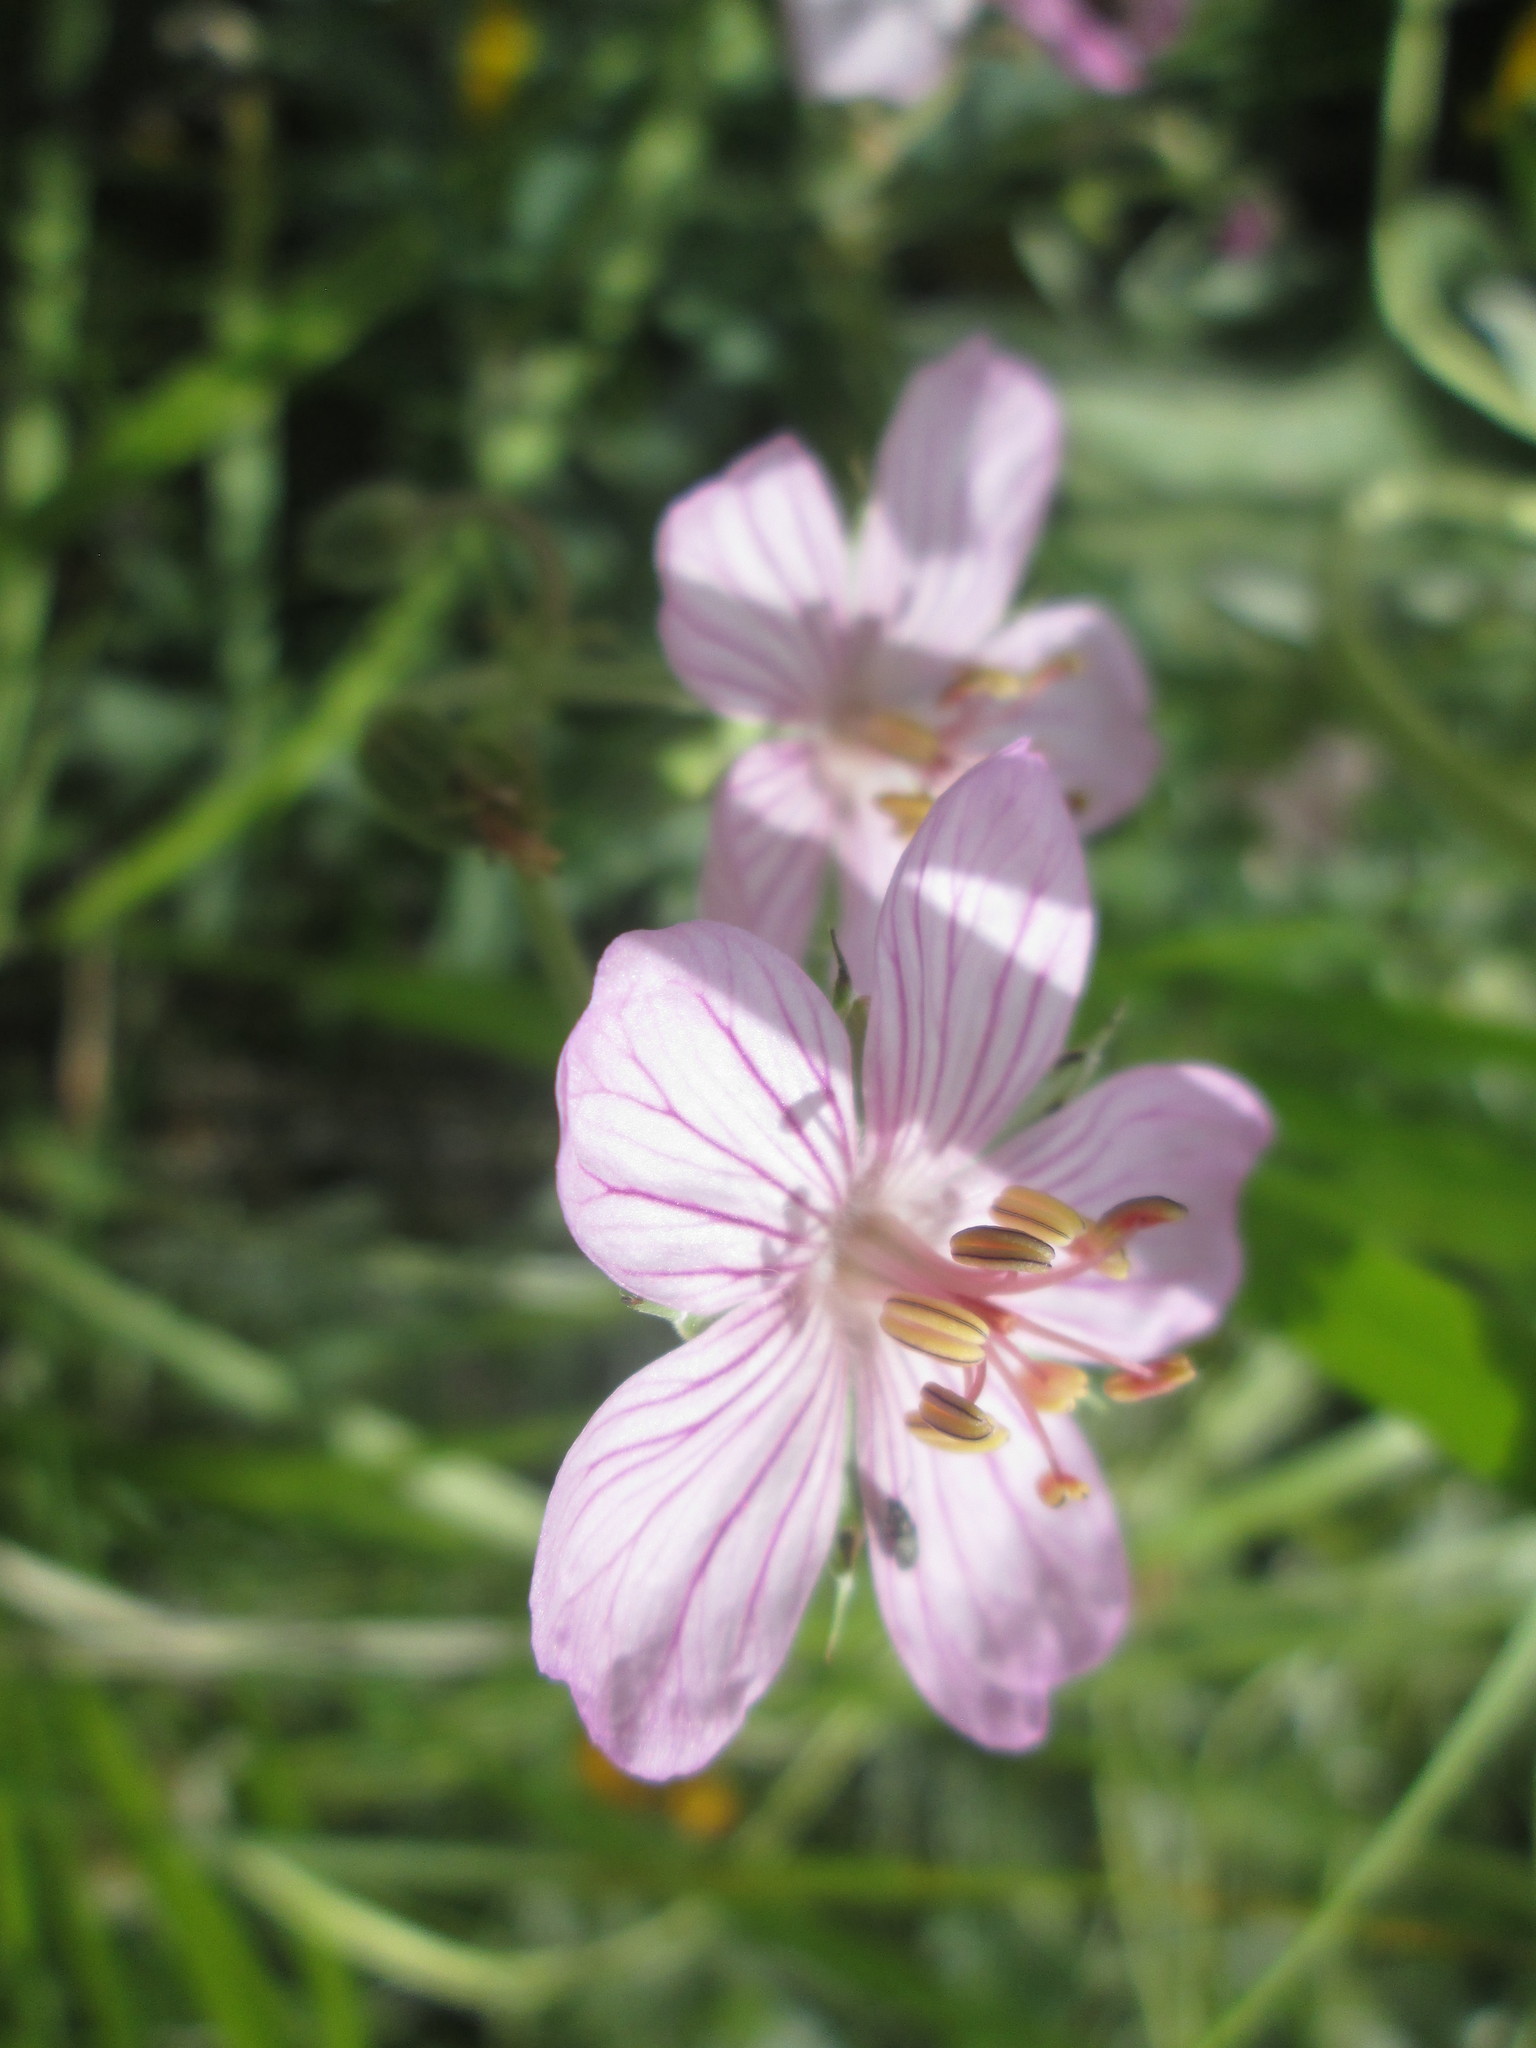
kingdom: Plantae
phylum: Tracheophyta
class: Magnoliopsida
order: Geraniales
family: Geraniaceae
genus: Geranium
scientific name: Geranium viscosissimum
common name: Purple geranium
